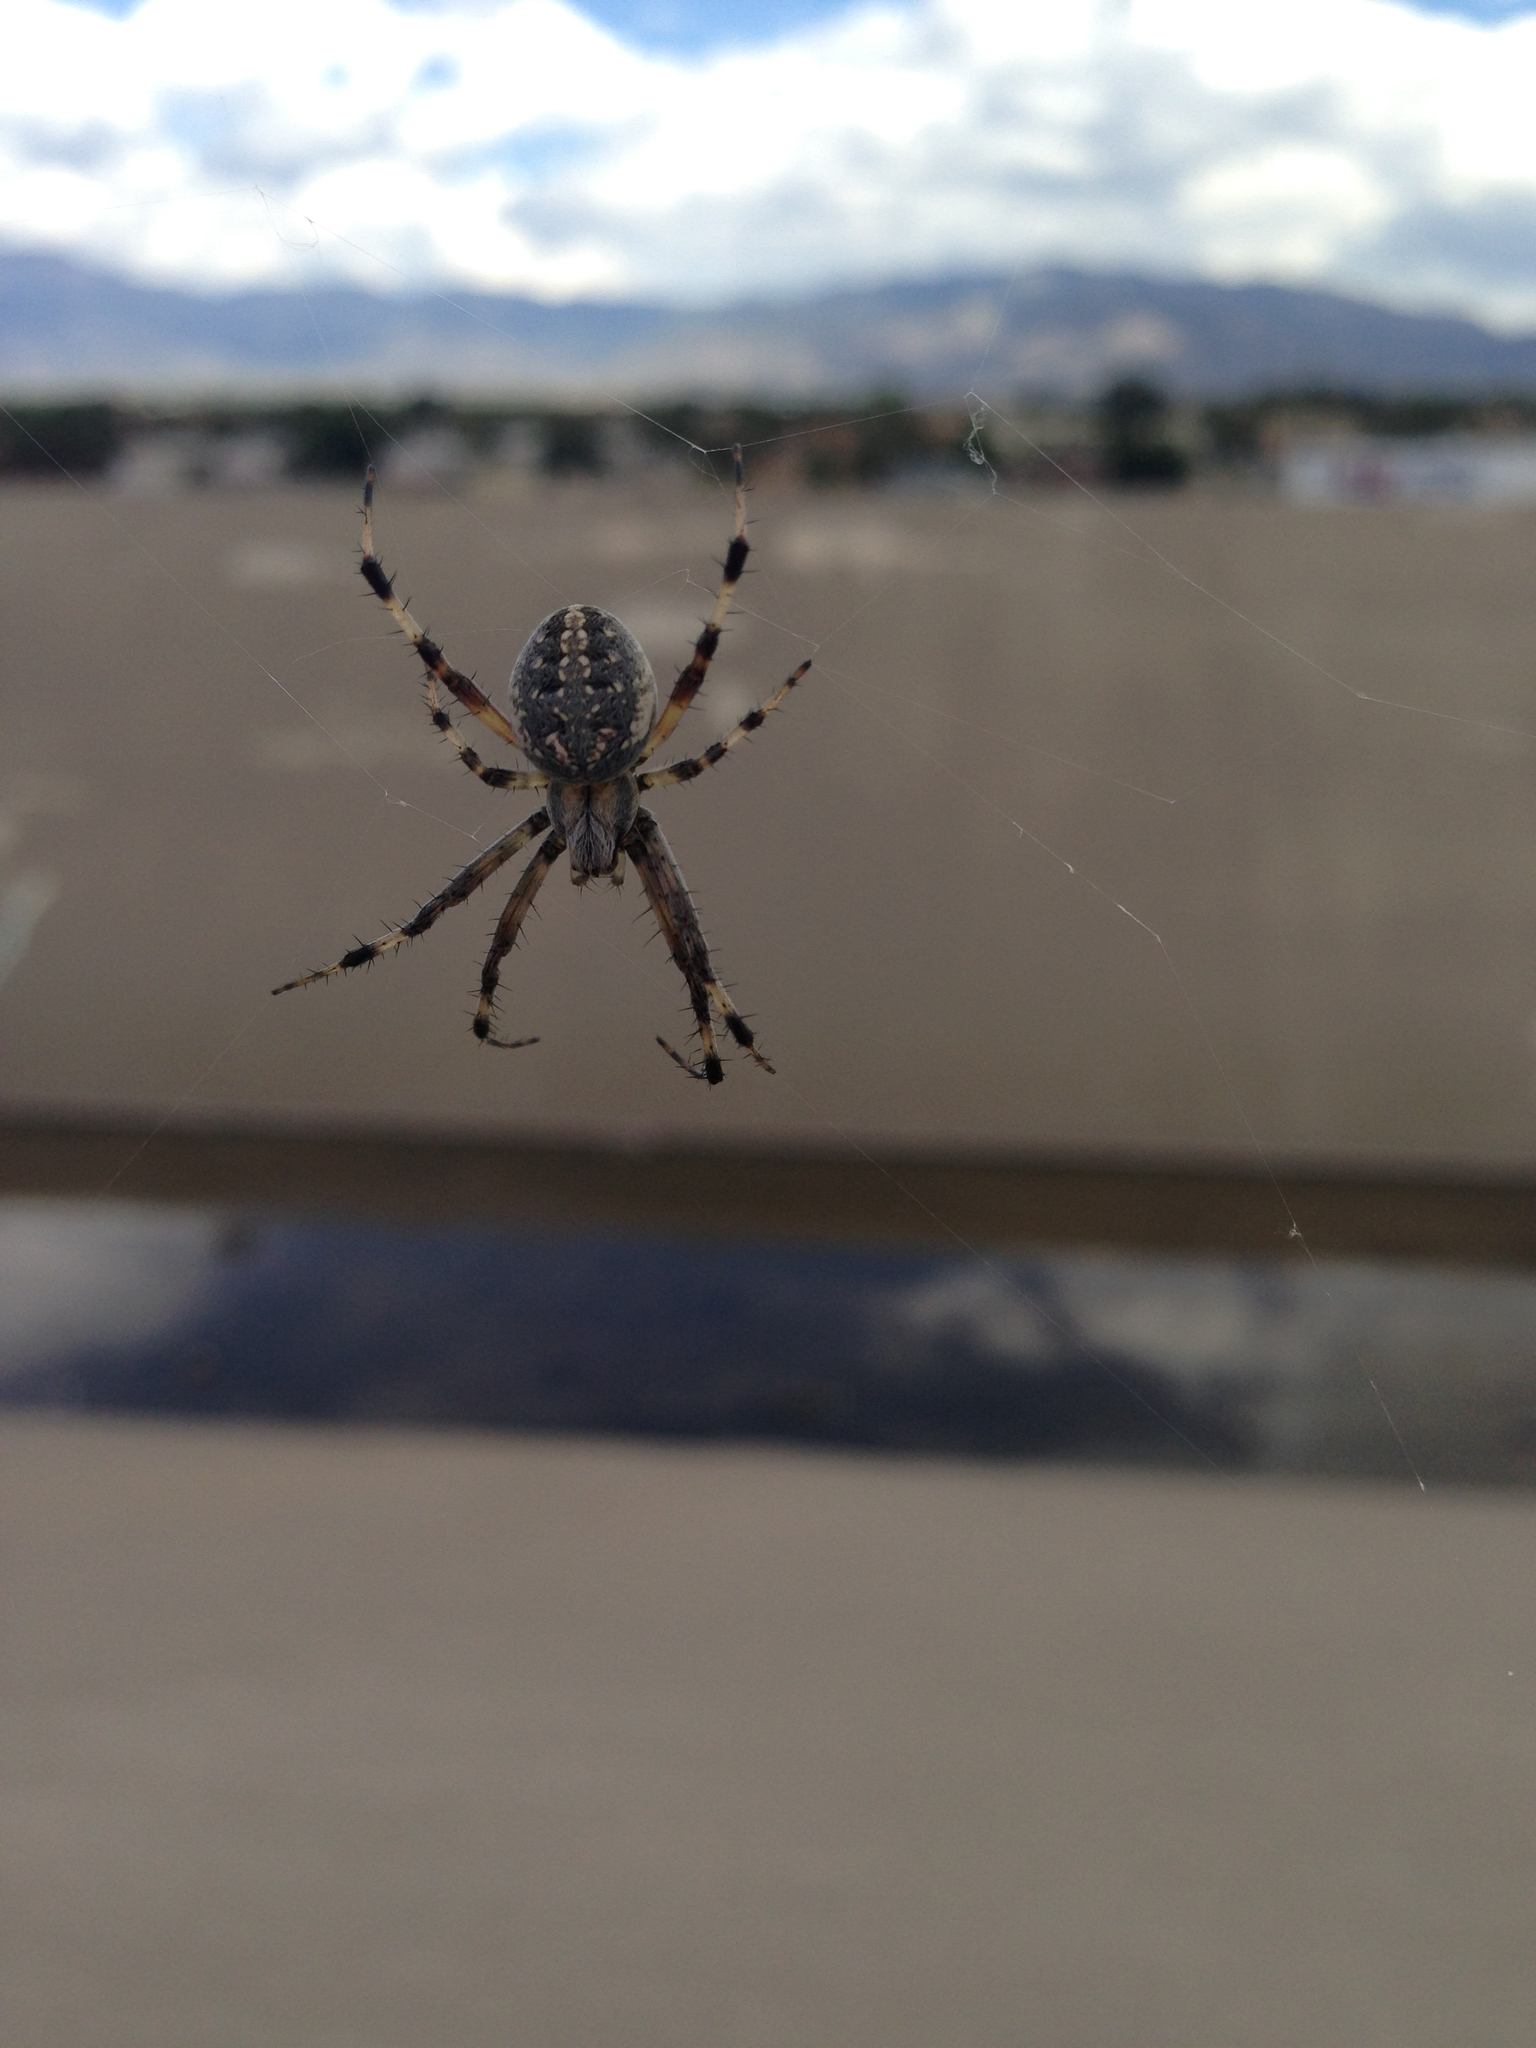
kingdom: Animalia
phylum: Arthropoda
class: Arachnida
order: Araneae
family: Araneidae
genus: Neoscona
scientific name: Neoscona oaxacensis
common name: Orb weavers
